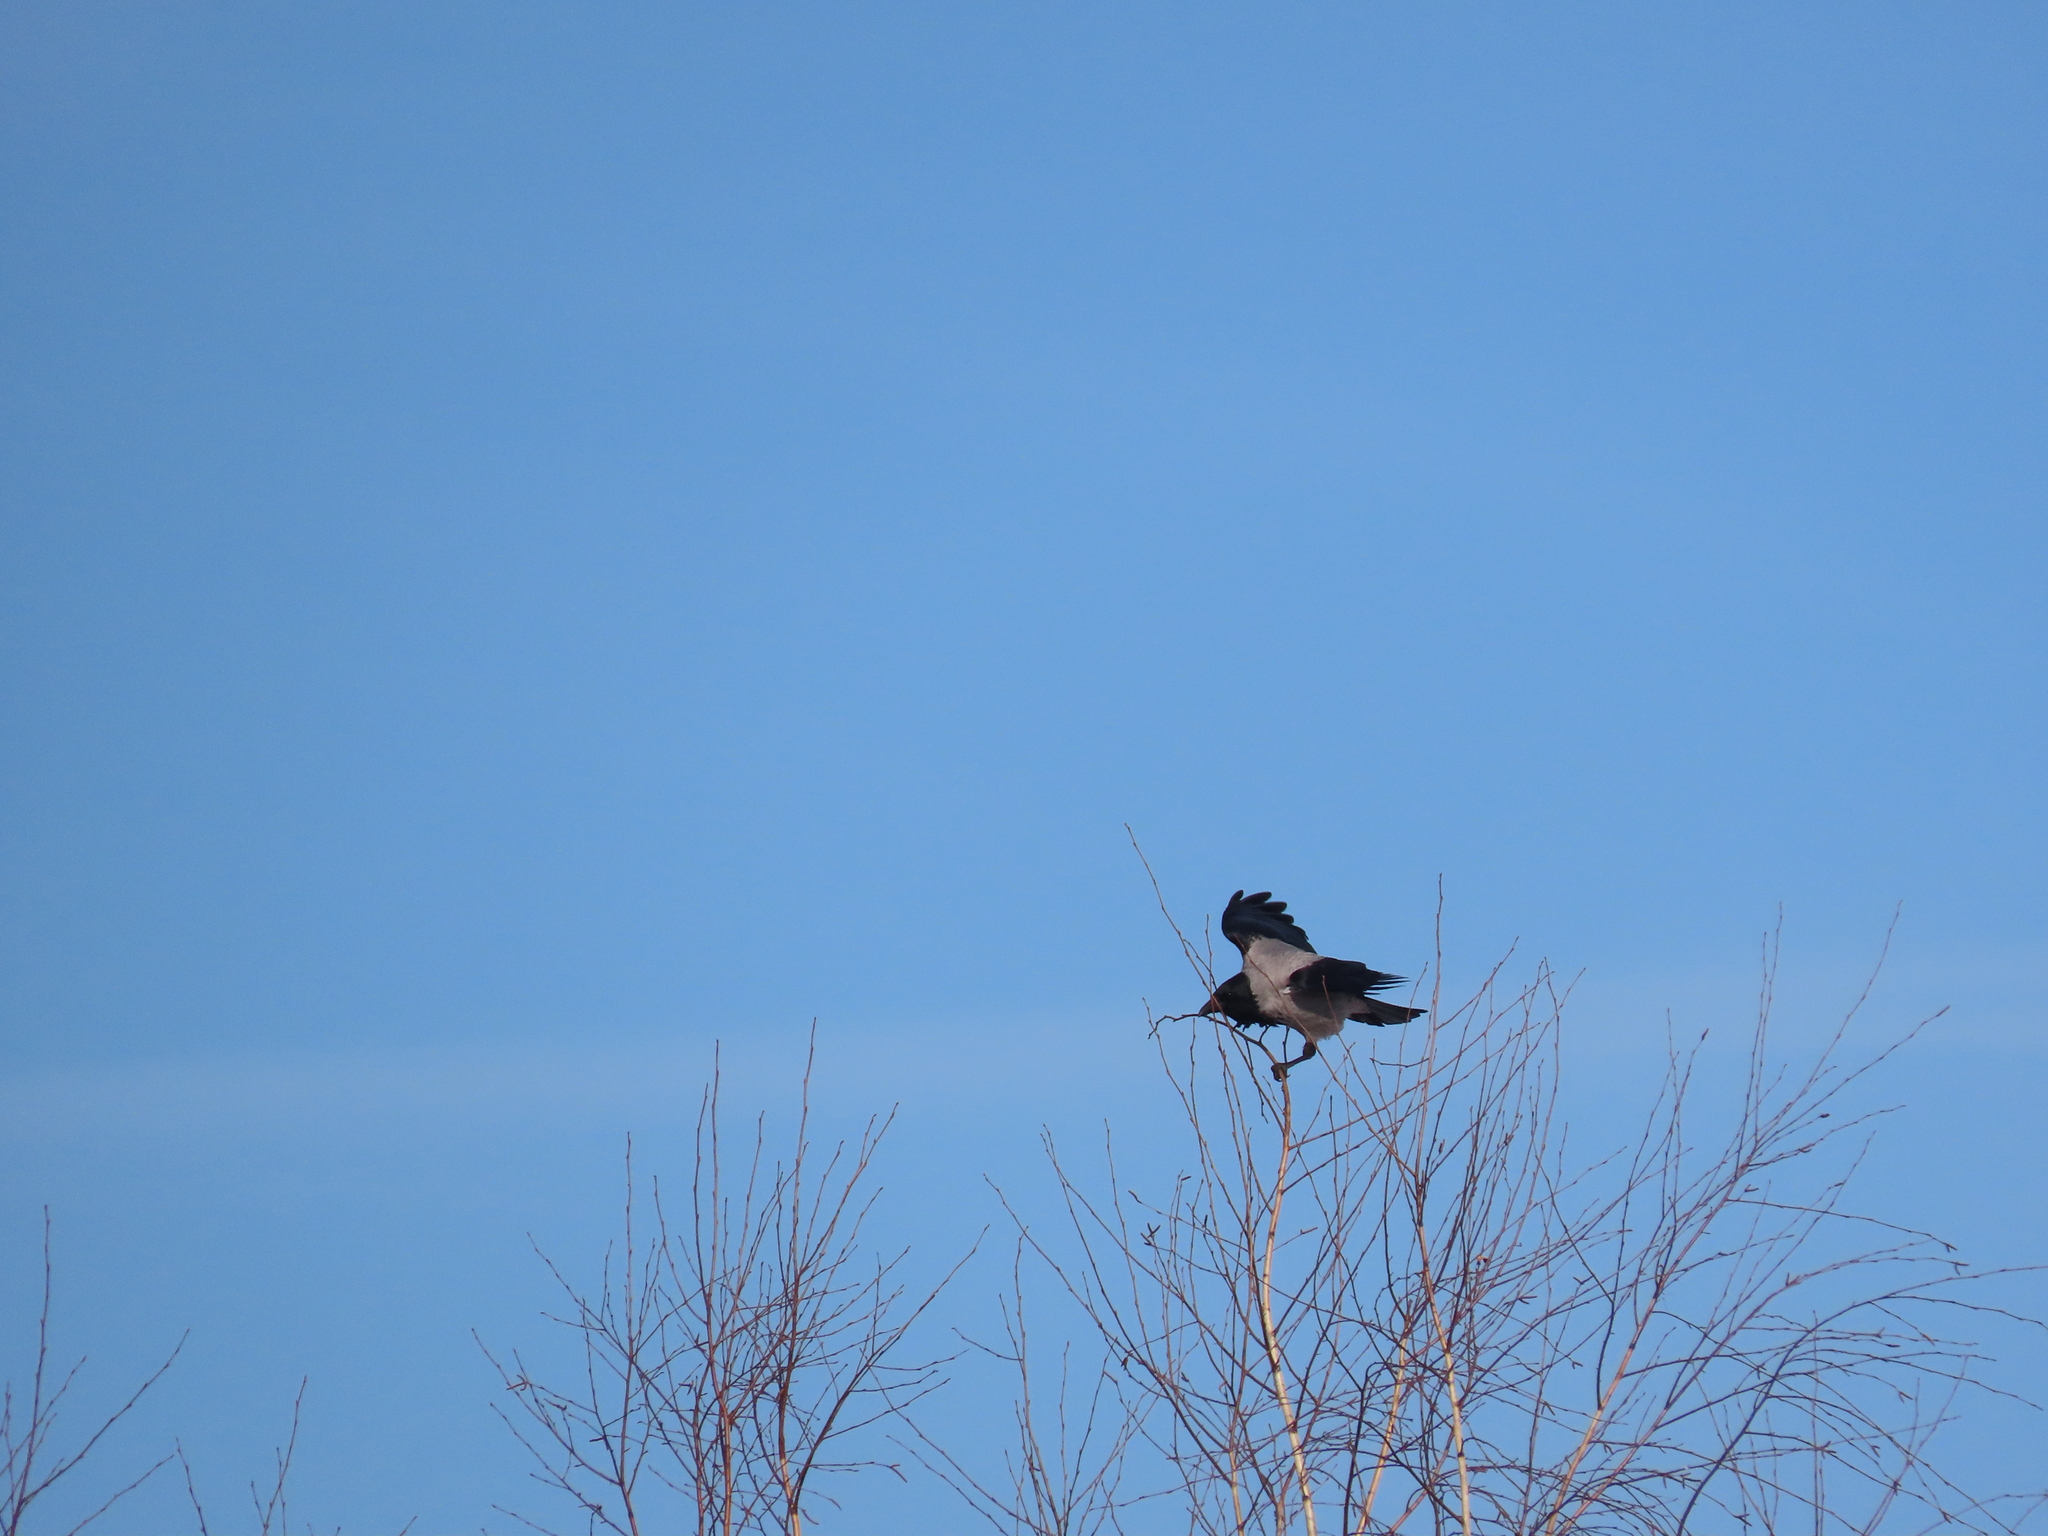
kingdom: Animalia
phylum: Chordata
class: Aves
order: Passeriformes
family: Corvidae
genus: Corvus
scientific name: Corvus cornix
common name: Hooded crow
